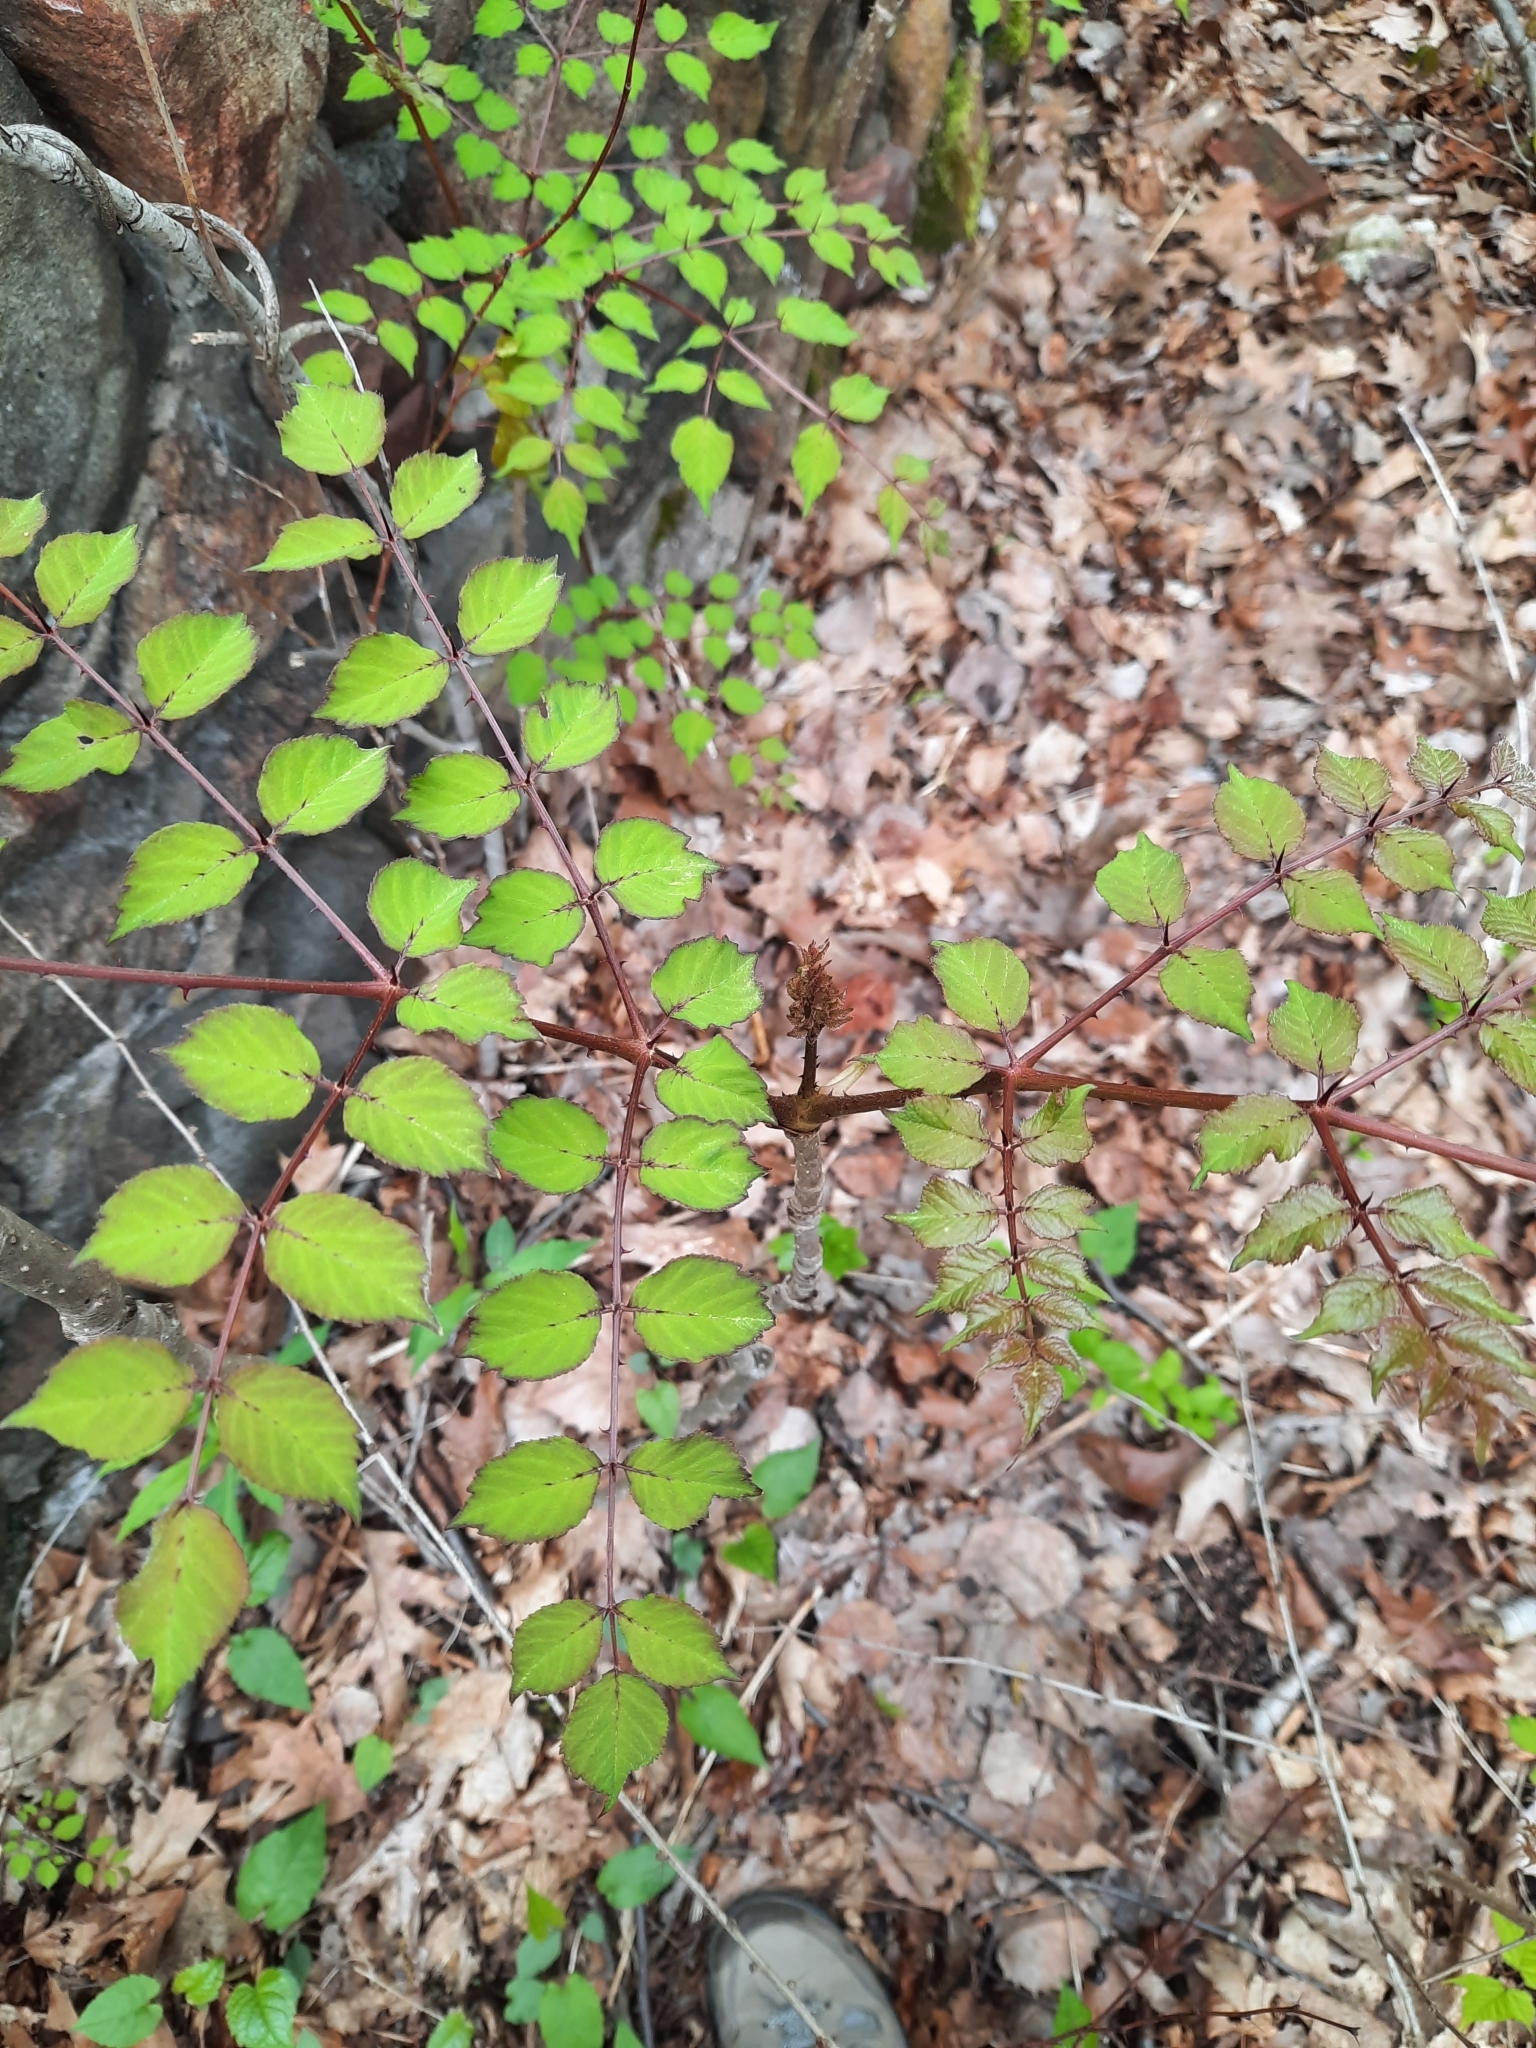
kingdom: Plantae
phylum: Tracheophyta
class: Magnoliopsida
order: Apiales
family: Araliaceae
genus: Aralia
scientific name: Aralia elata
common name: Japanese angelica-tree
